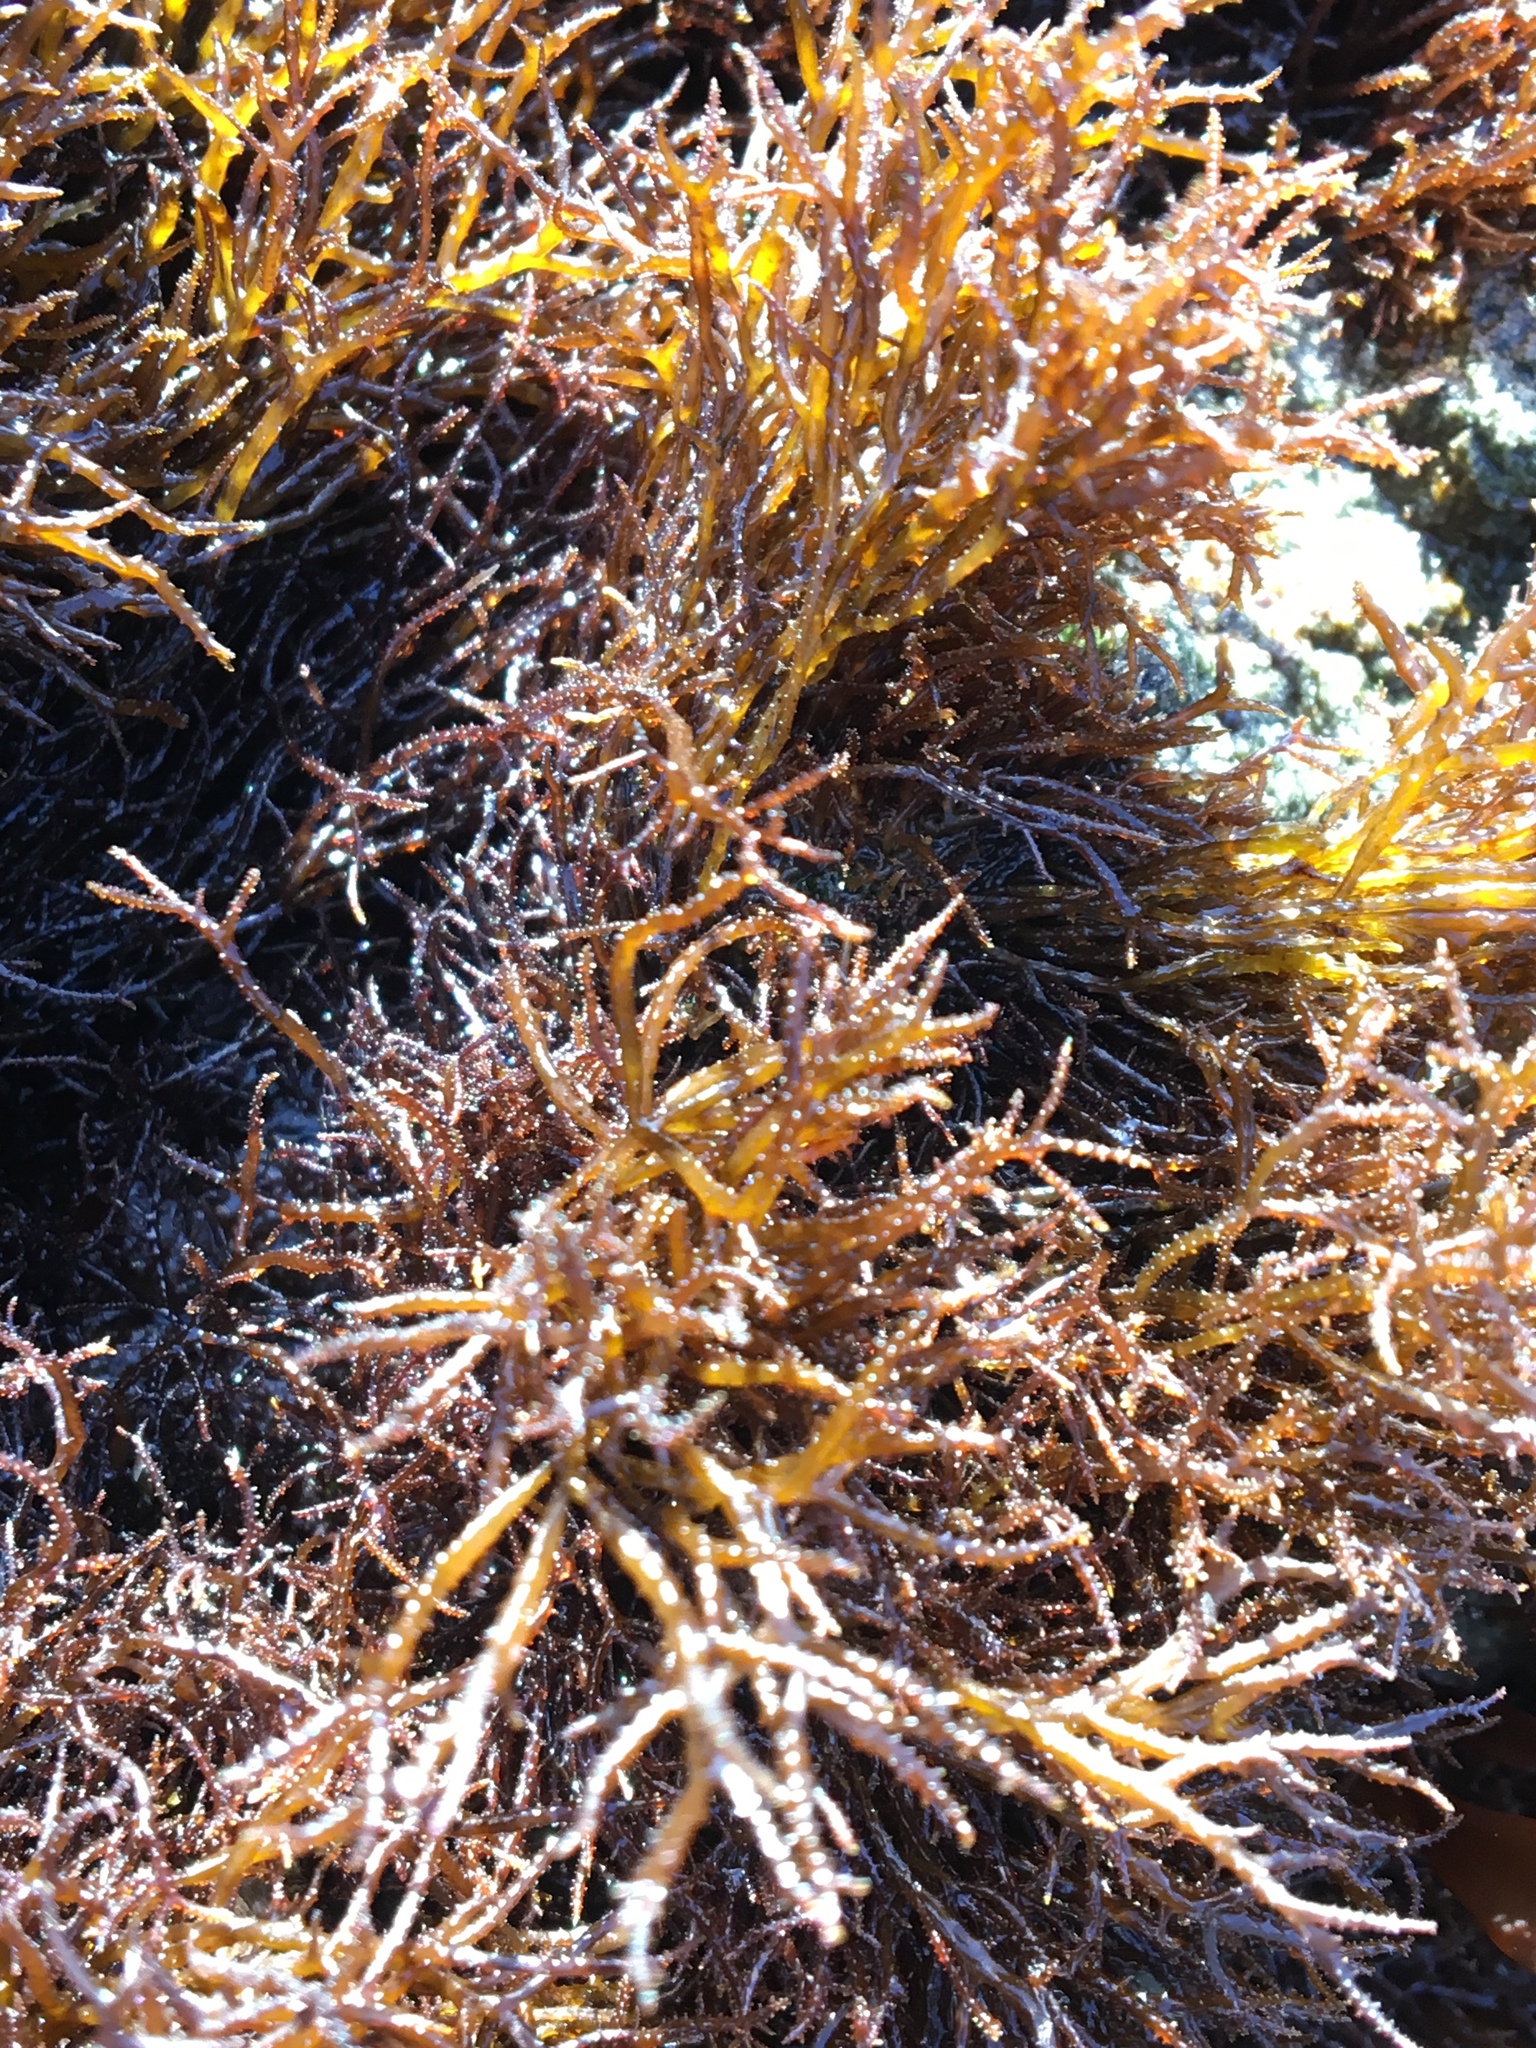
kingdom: Plantae
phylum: Rhodophyta
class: Florideophyceae
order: Gigartinales
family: Endocladiaceae
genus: Endocladia
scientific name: Endocladia muricata
